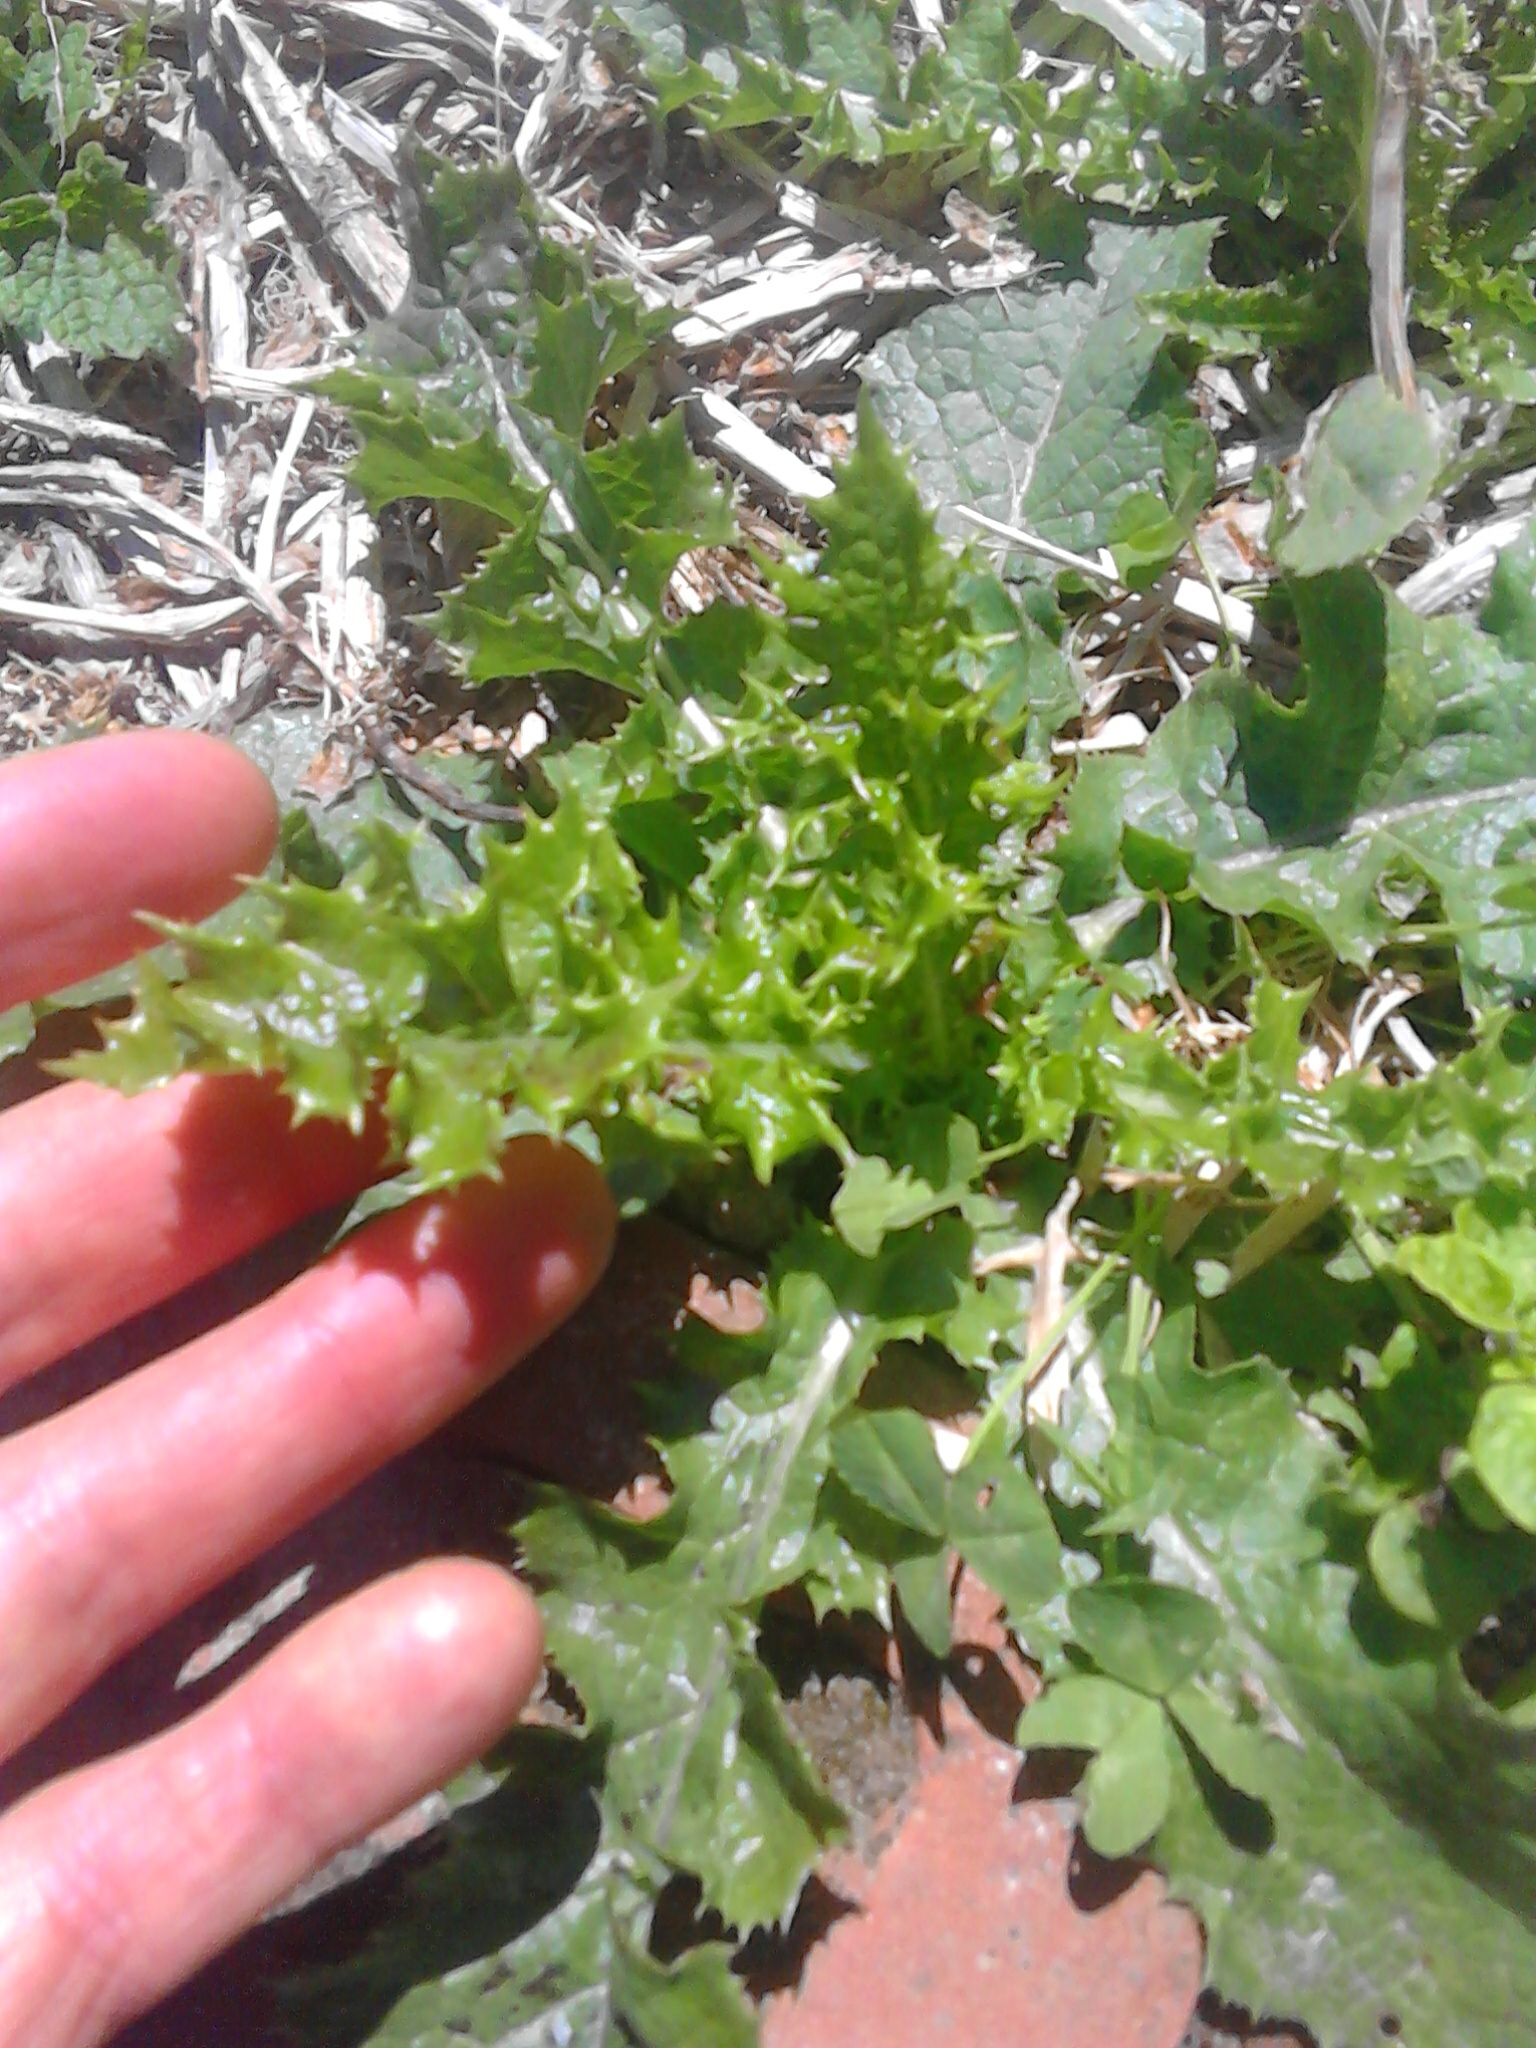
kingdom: Plantae
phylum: Tracheophyta
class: Magnoliopsida
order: Asterales
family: Asteraceae
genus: Sonchus
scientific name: Sonchus asper
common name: Prickly sow-thistle
